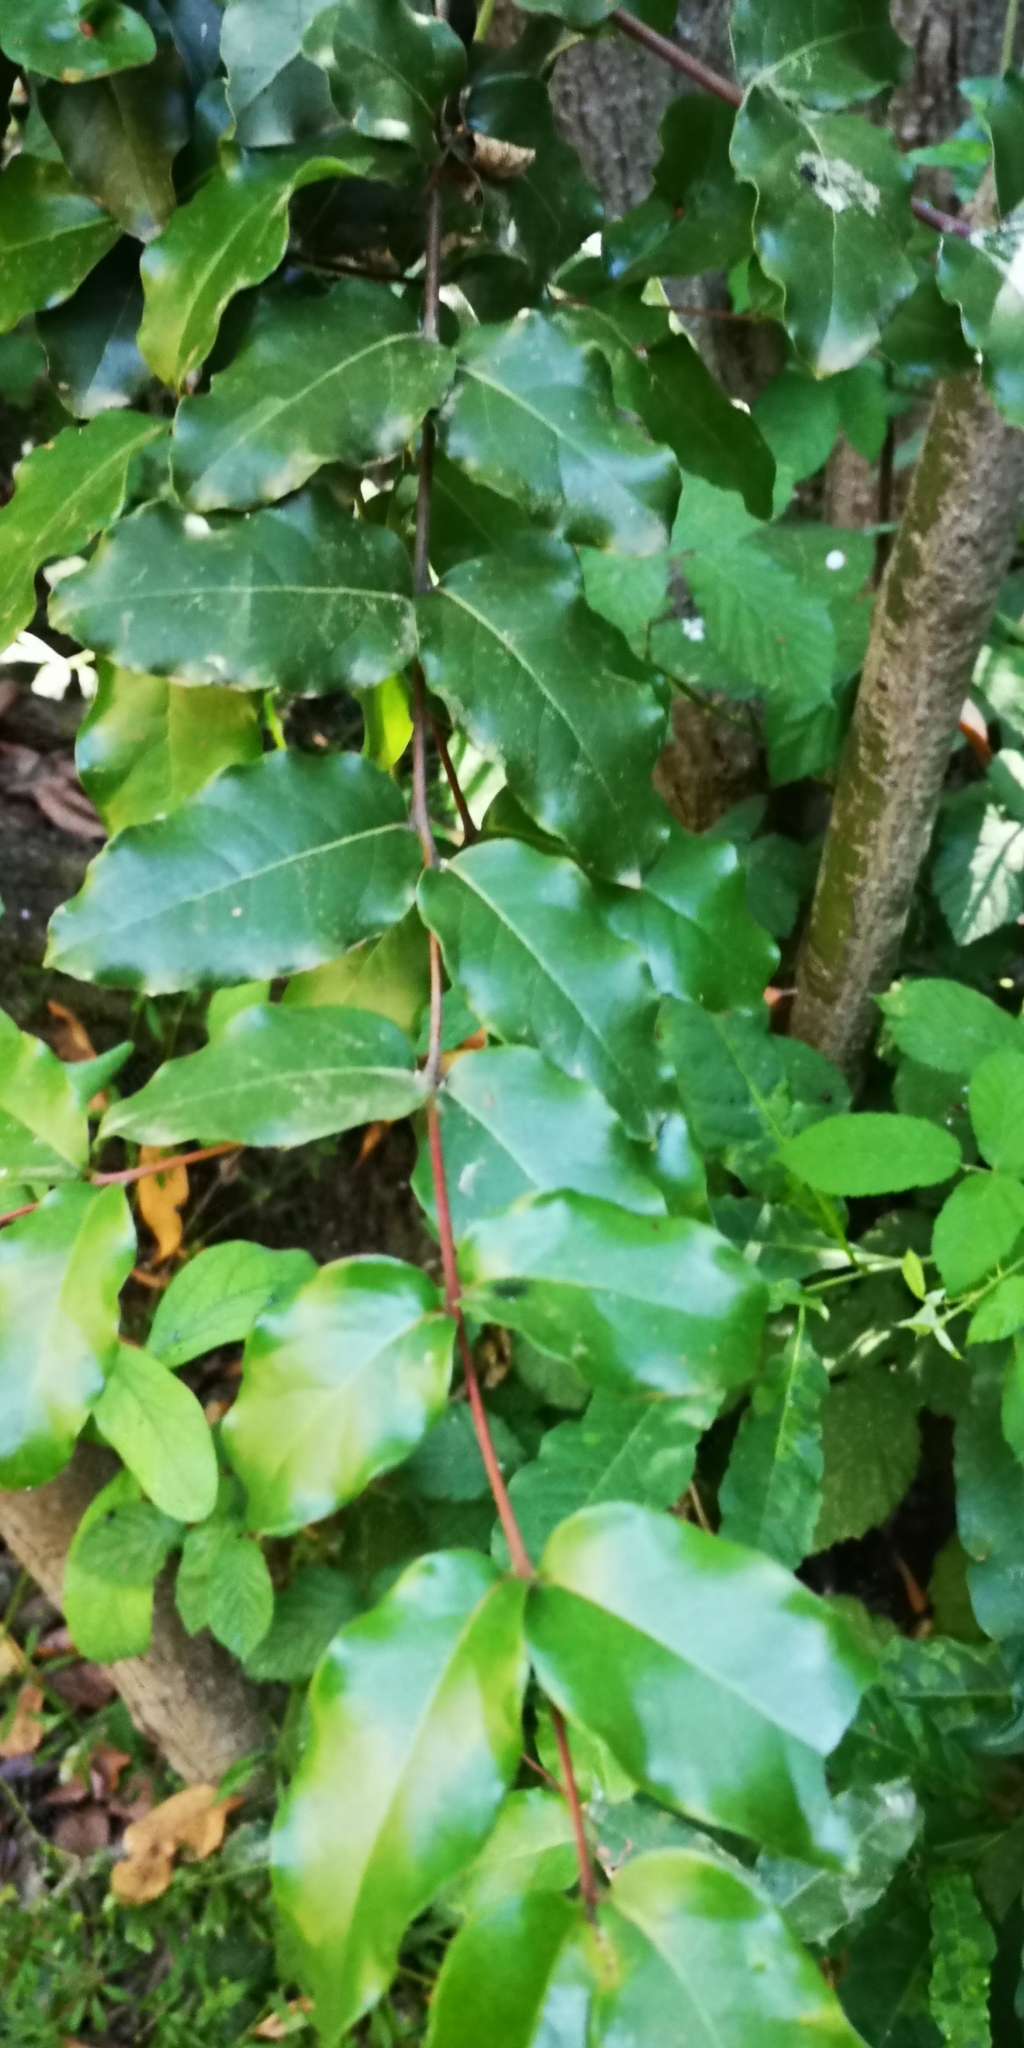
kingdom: Plantae
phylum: Tracheophyta
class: Magnoliopsida
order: Laurales
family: Lauraceae
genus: Cryptocarya
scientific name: Cryptocarya alba
